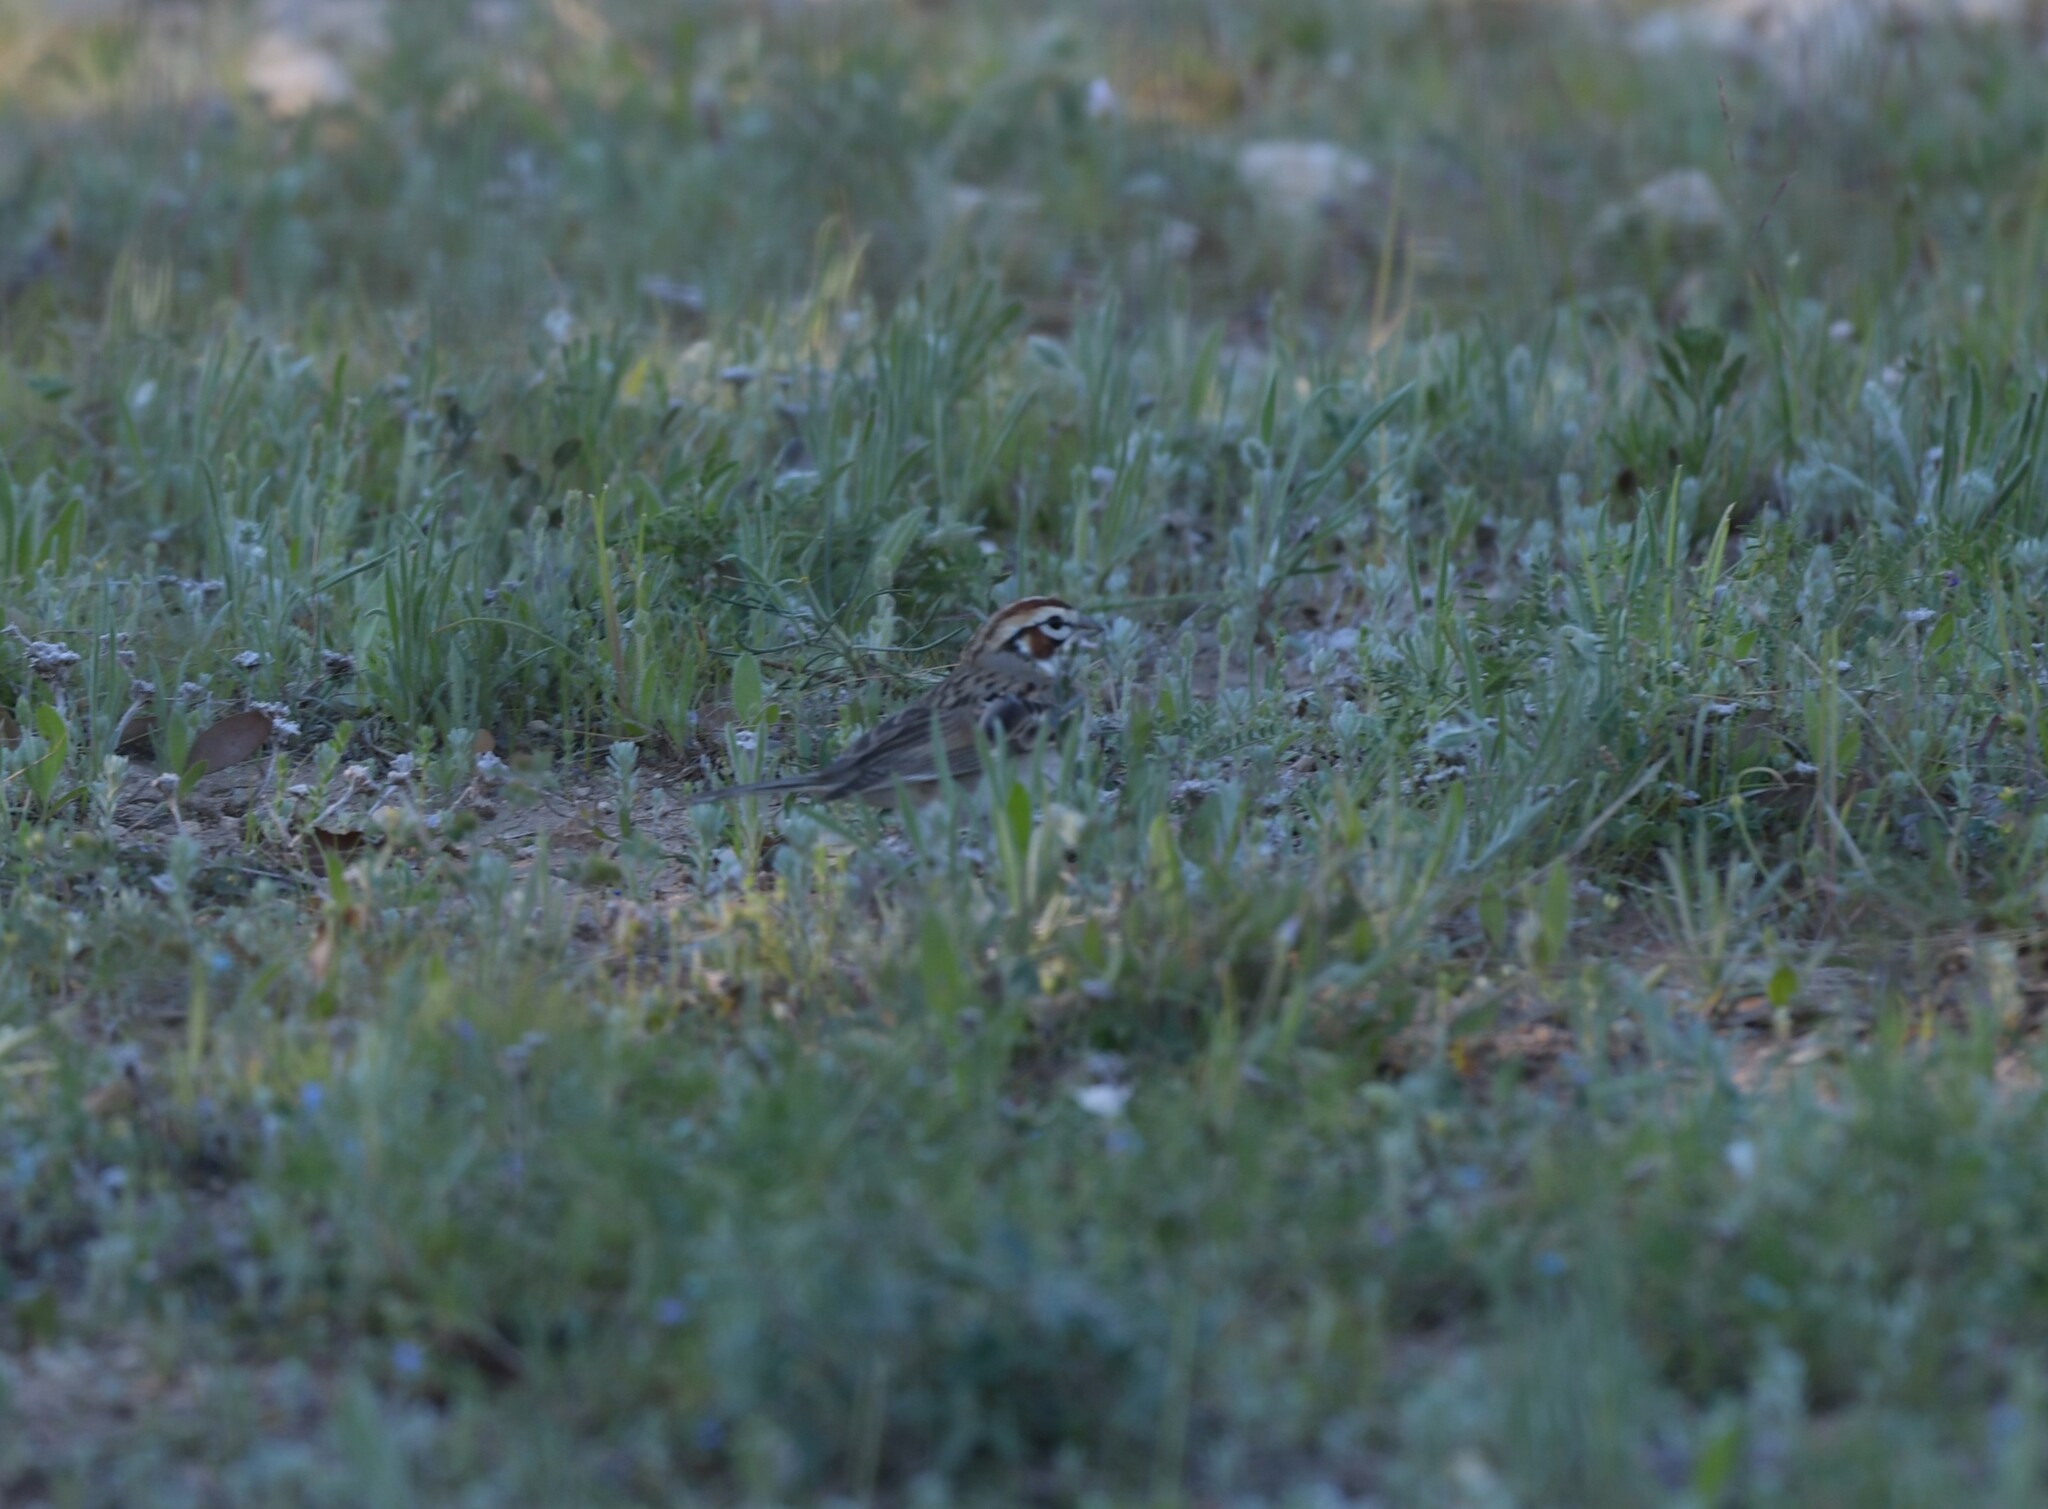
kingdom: Animalia
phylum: Chordata
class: Aves
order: Passeriformes
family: Passerellidae
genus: Chondestes
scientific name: Chondestes grammacus
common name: Lark sparrow
